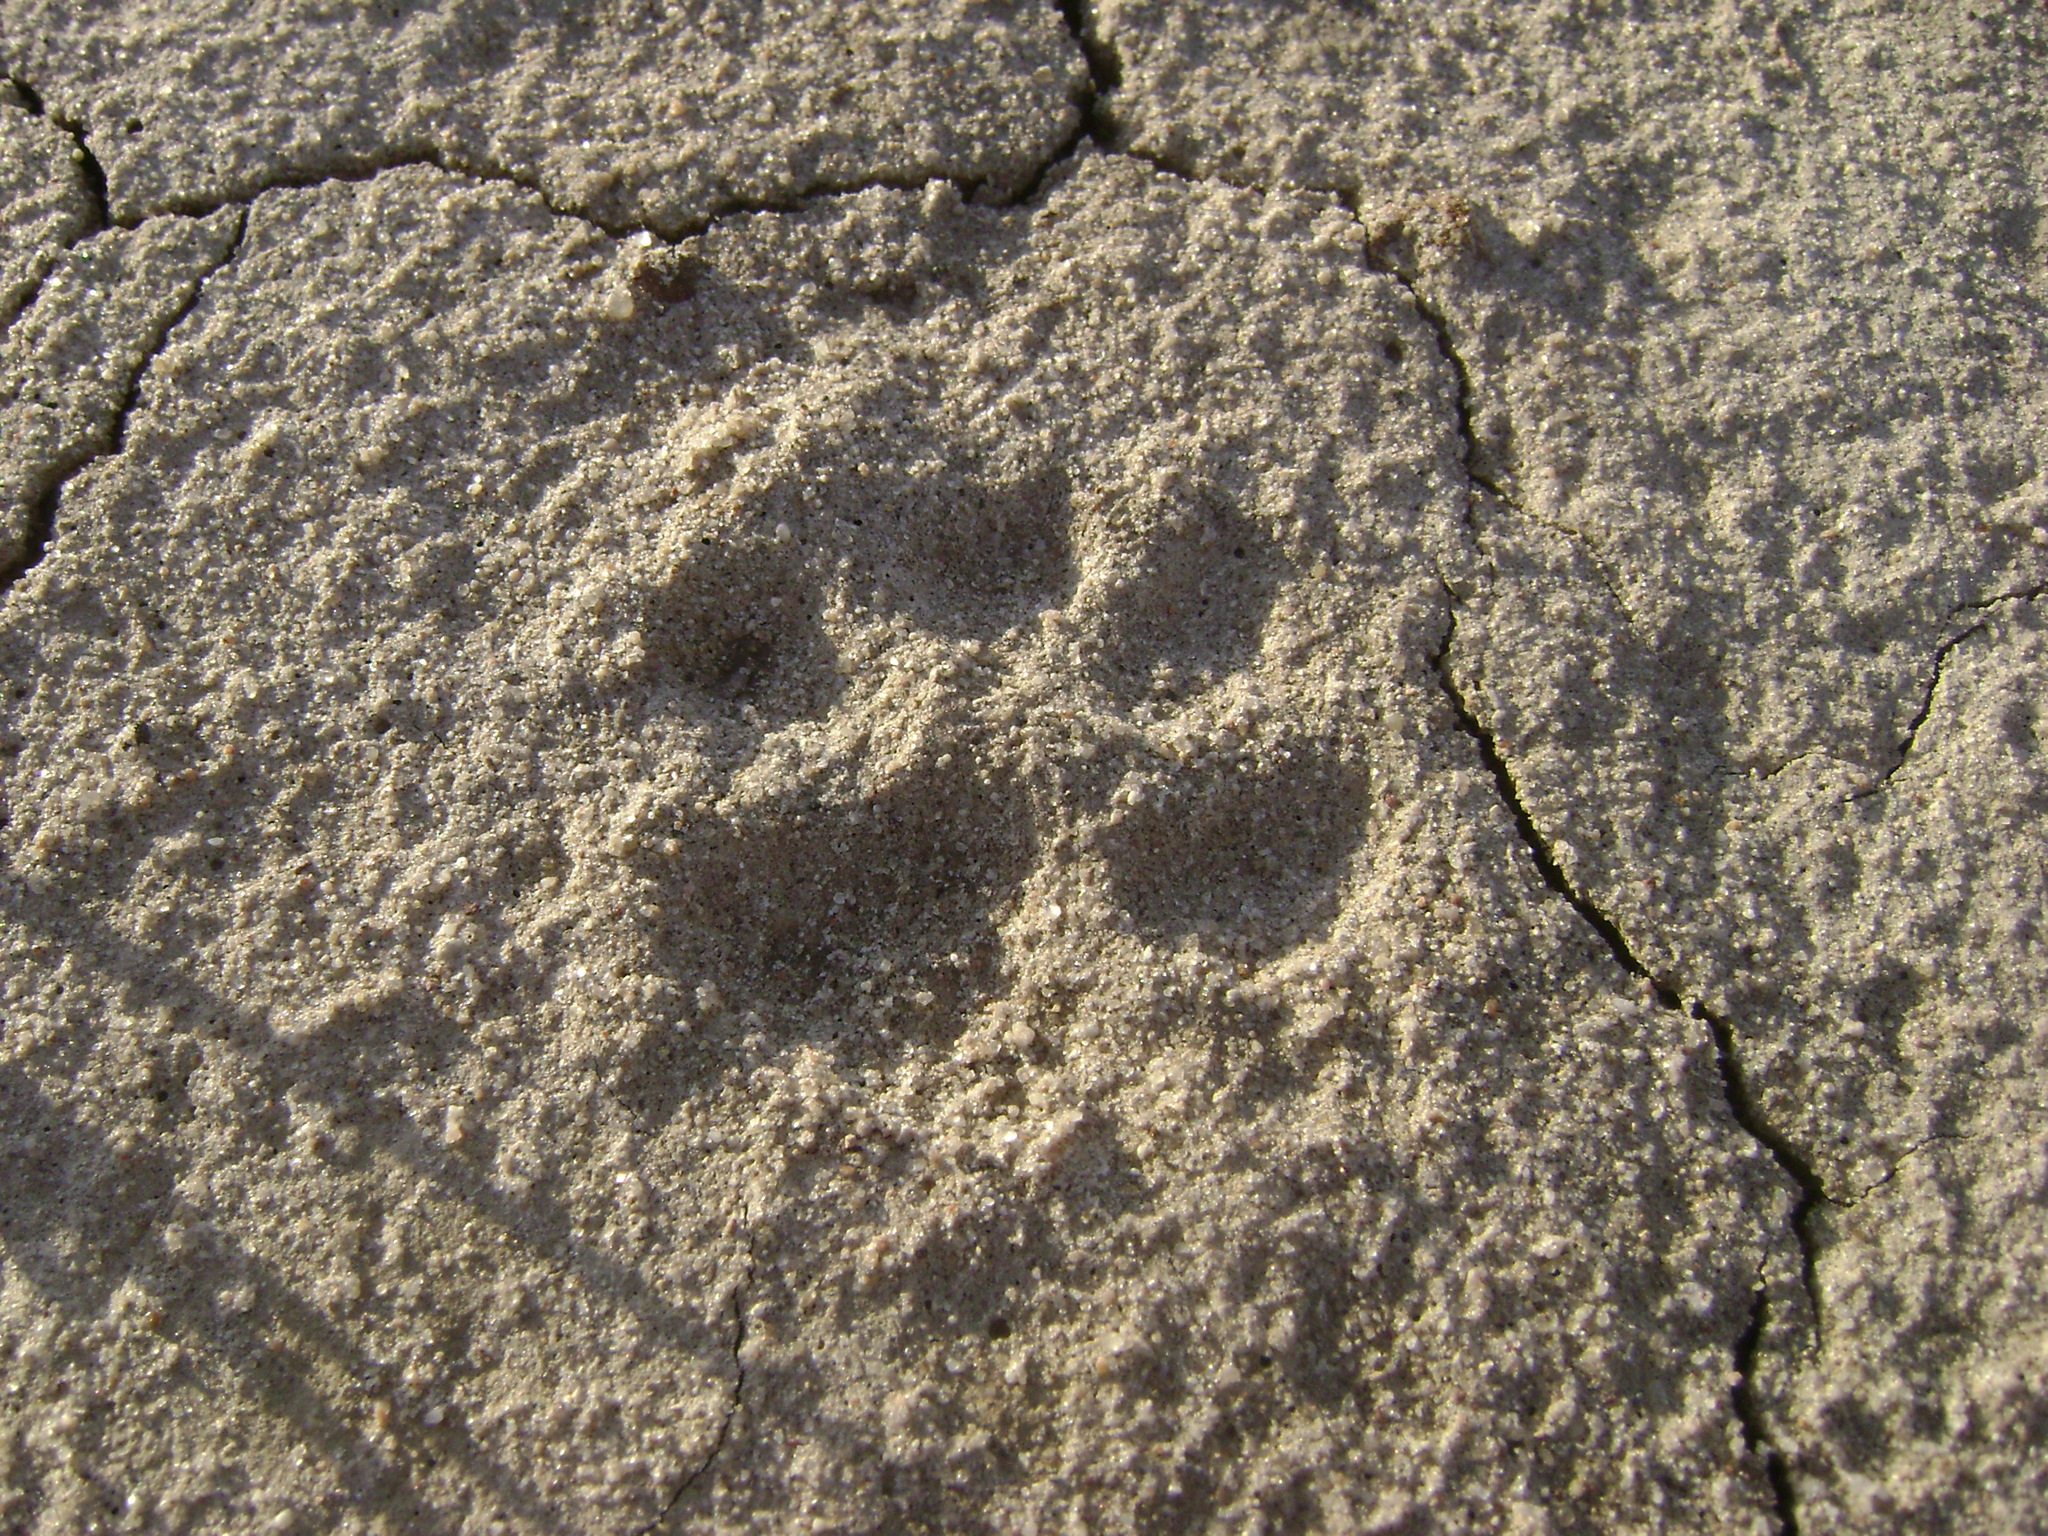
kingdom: Animalia
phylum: Chordata
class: Mammalia
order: Carnivora
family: Canidae
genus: Urocyon
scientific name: Urocyon littoralis
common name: Island gray fox
